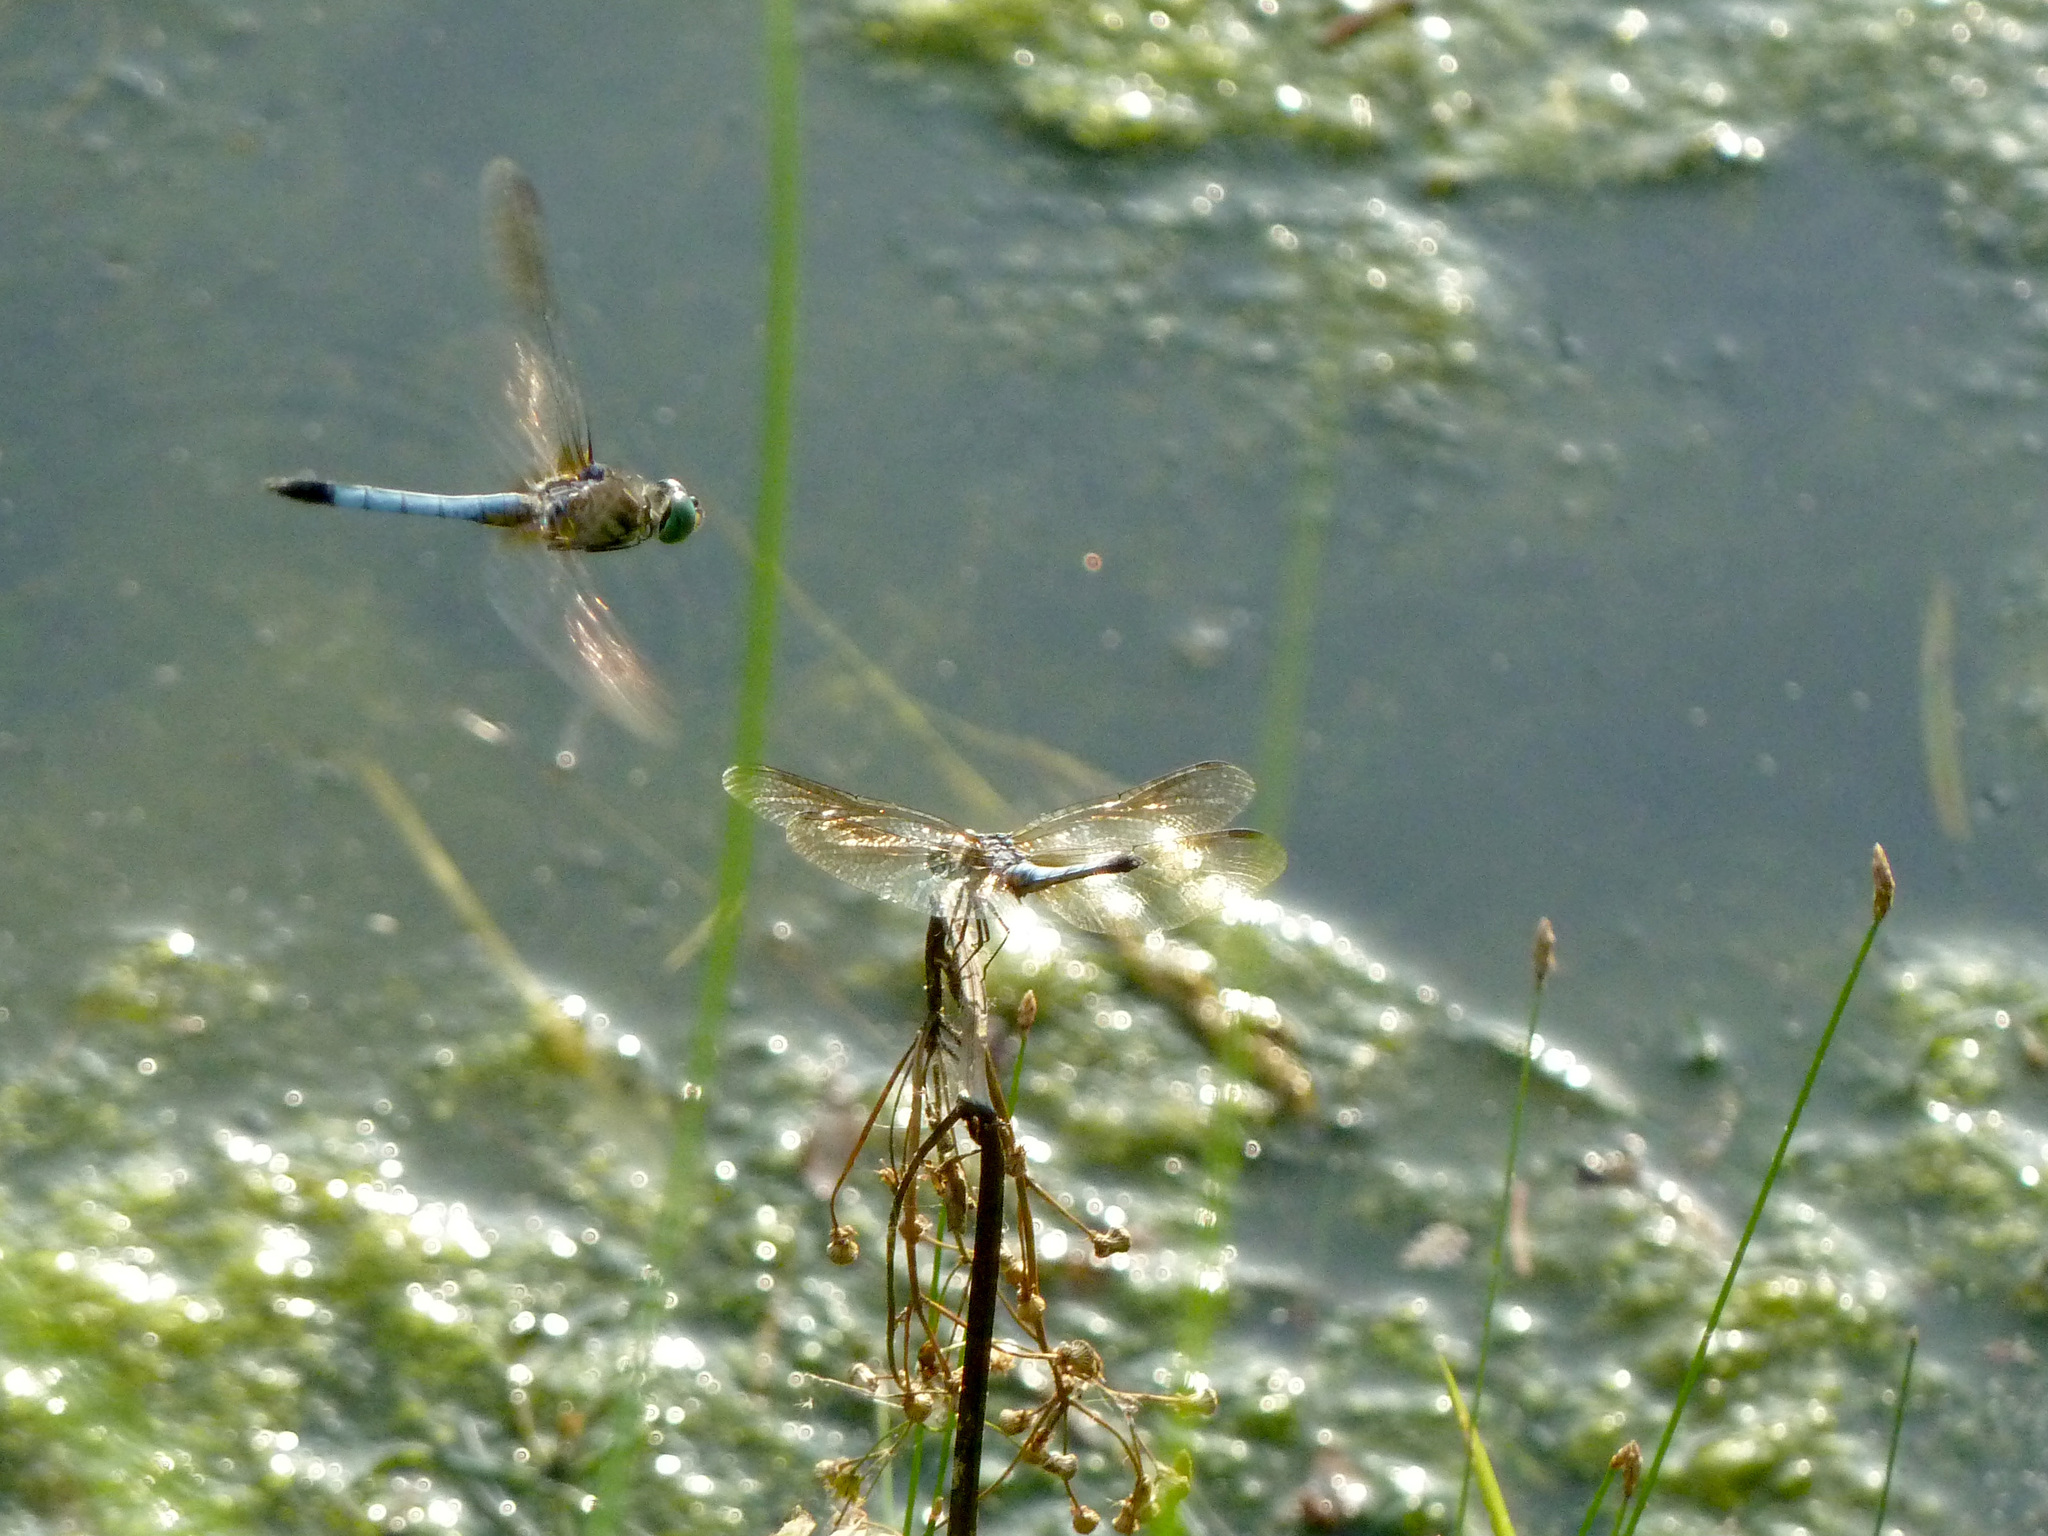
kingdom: Animalia
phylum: Arthropoda
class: Insecta
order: Odonata
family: Libellulidae
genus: Pachydiplax
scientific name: Pachydiplax longipennis
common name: Blue dasher
